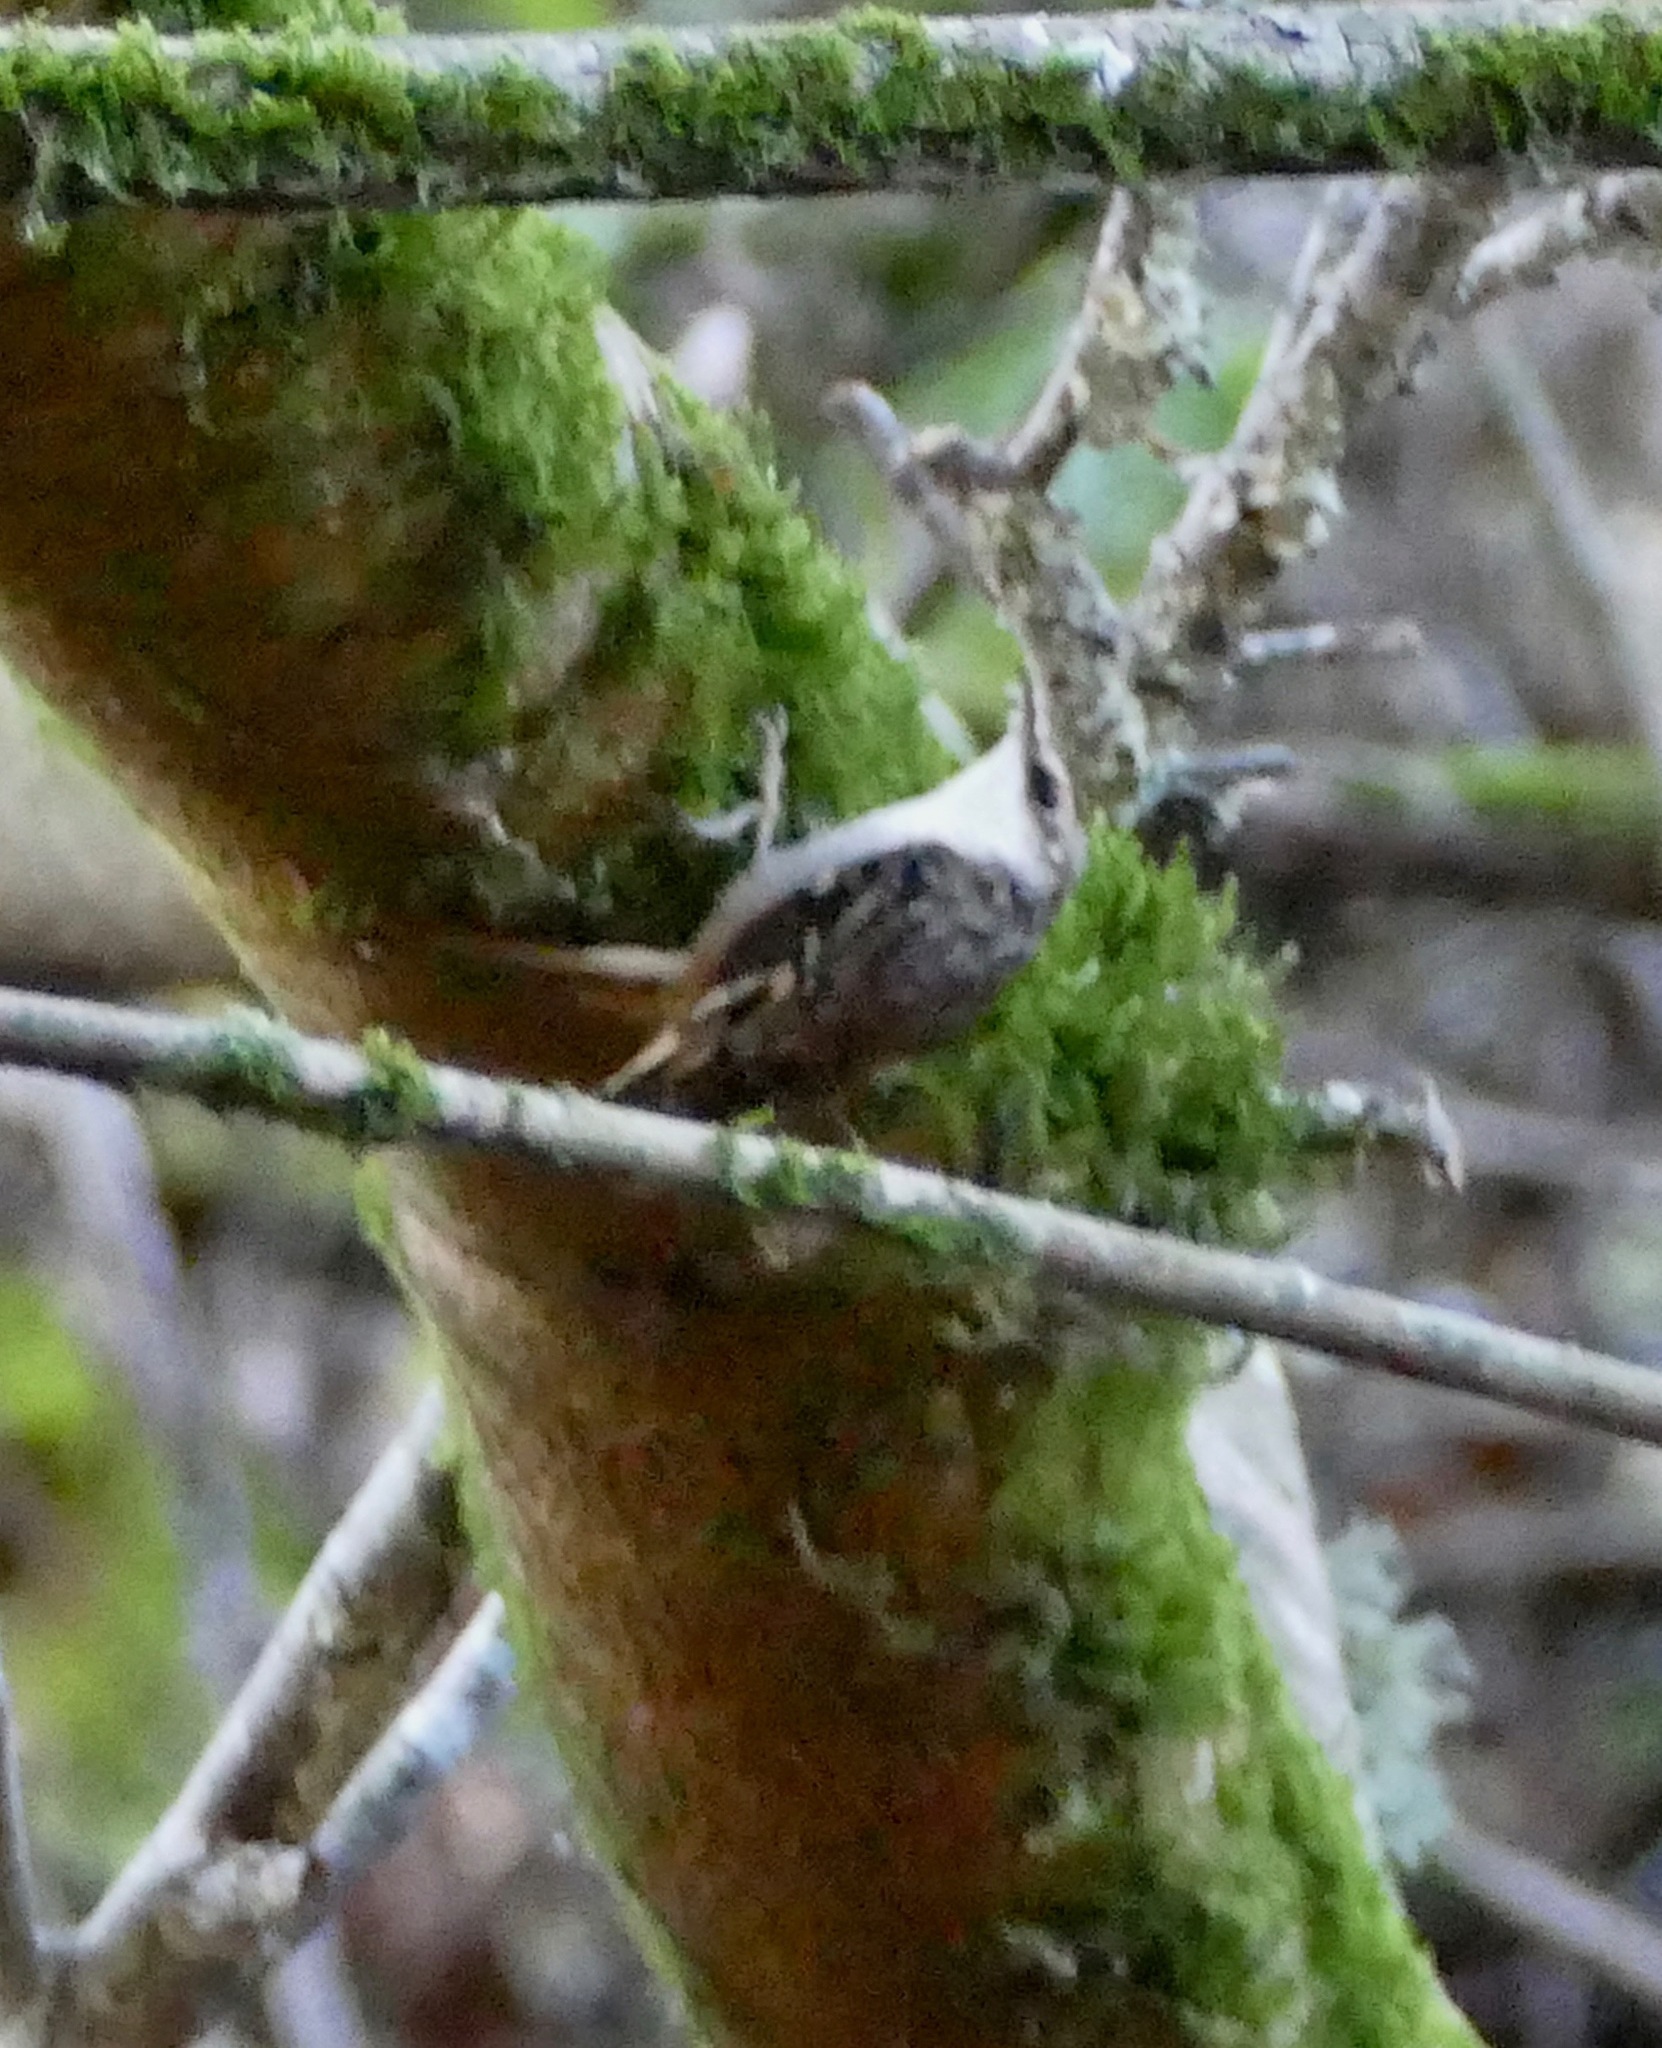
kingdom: Animalia
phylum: Chordata
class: Aves
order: Passeriformes
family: Certhiidae
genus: Certhia
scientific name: Certhia americana
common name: Brown creeper
